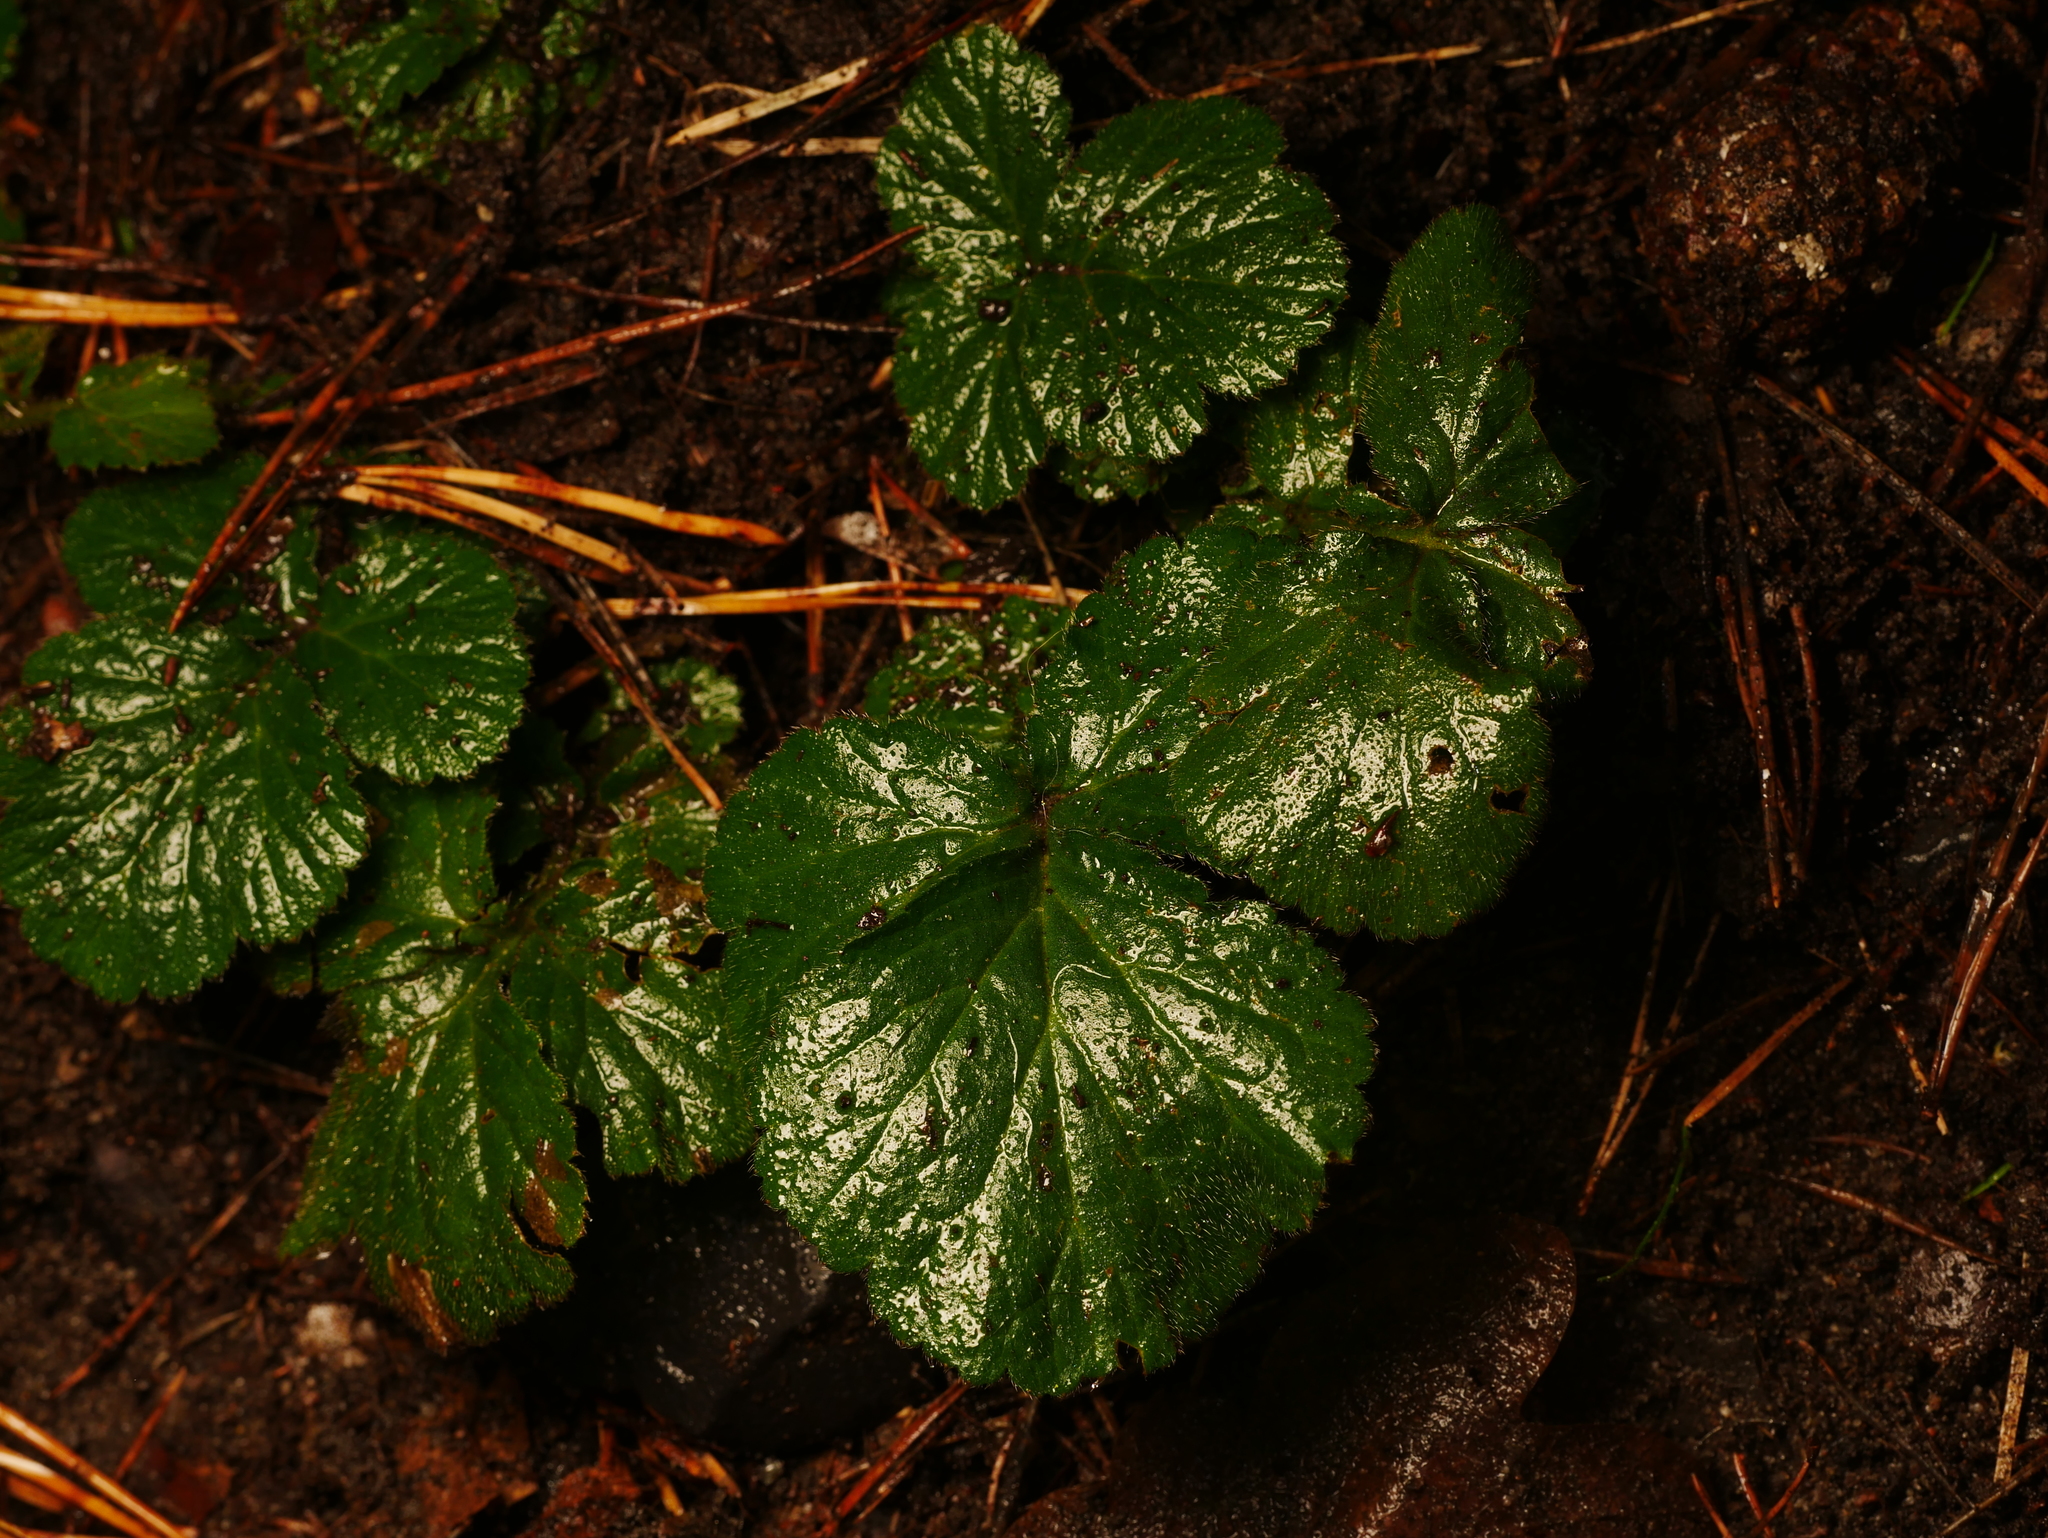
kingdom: Plantae
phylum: Tracheophyta
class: Magnoliopsida
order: Rosales
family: Rosaceae
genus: Geum
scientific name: Geum urbanum
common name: Wood avens
